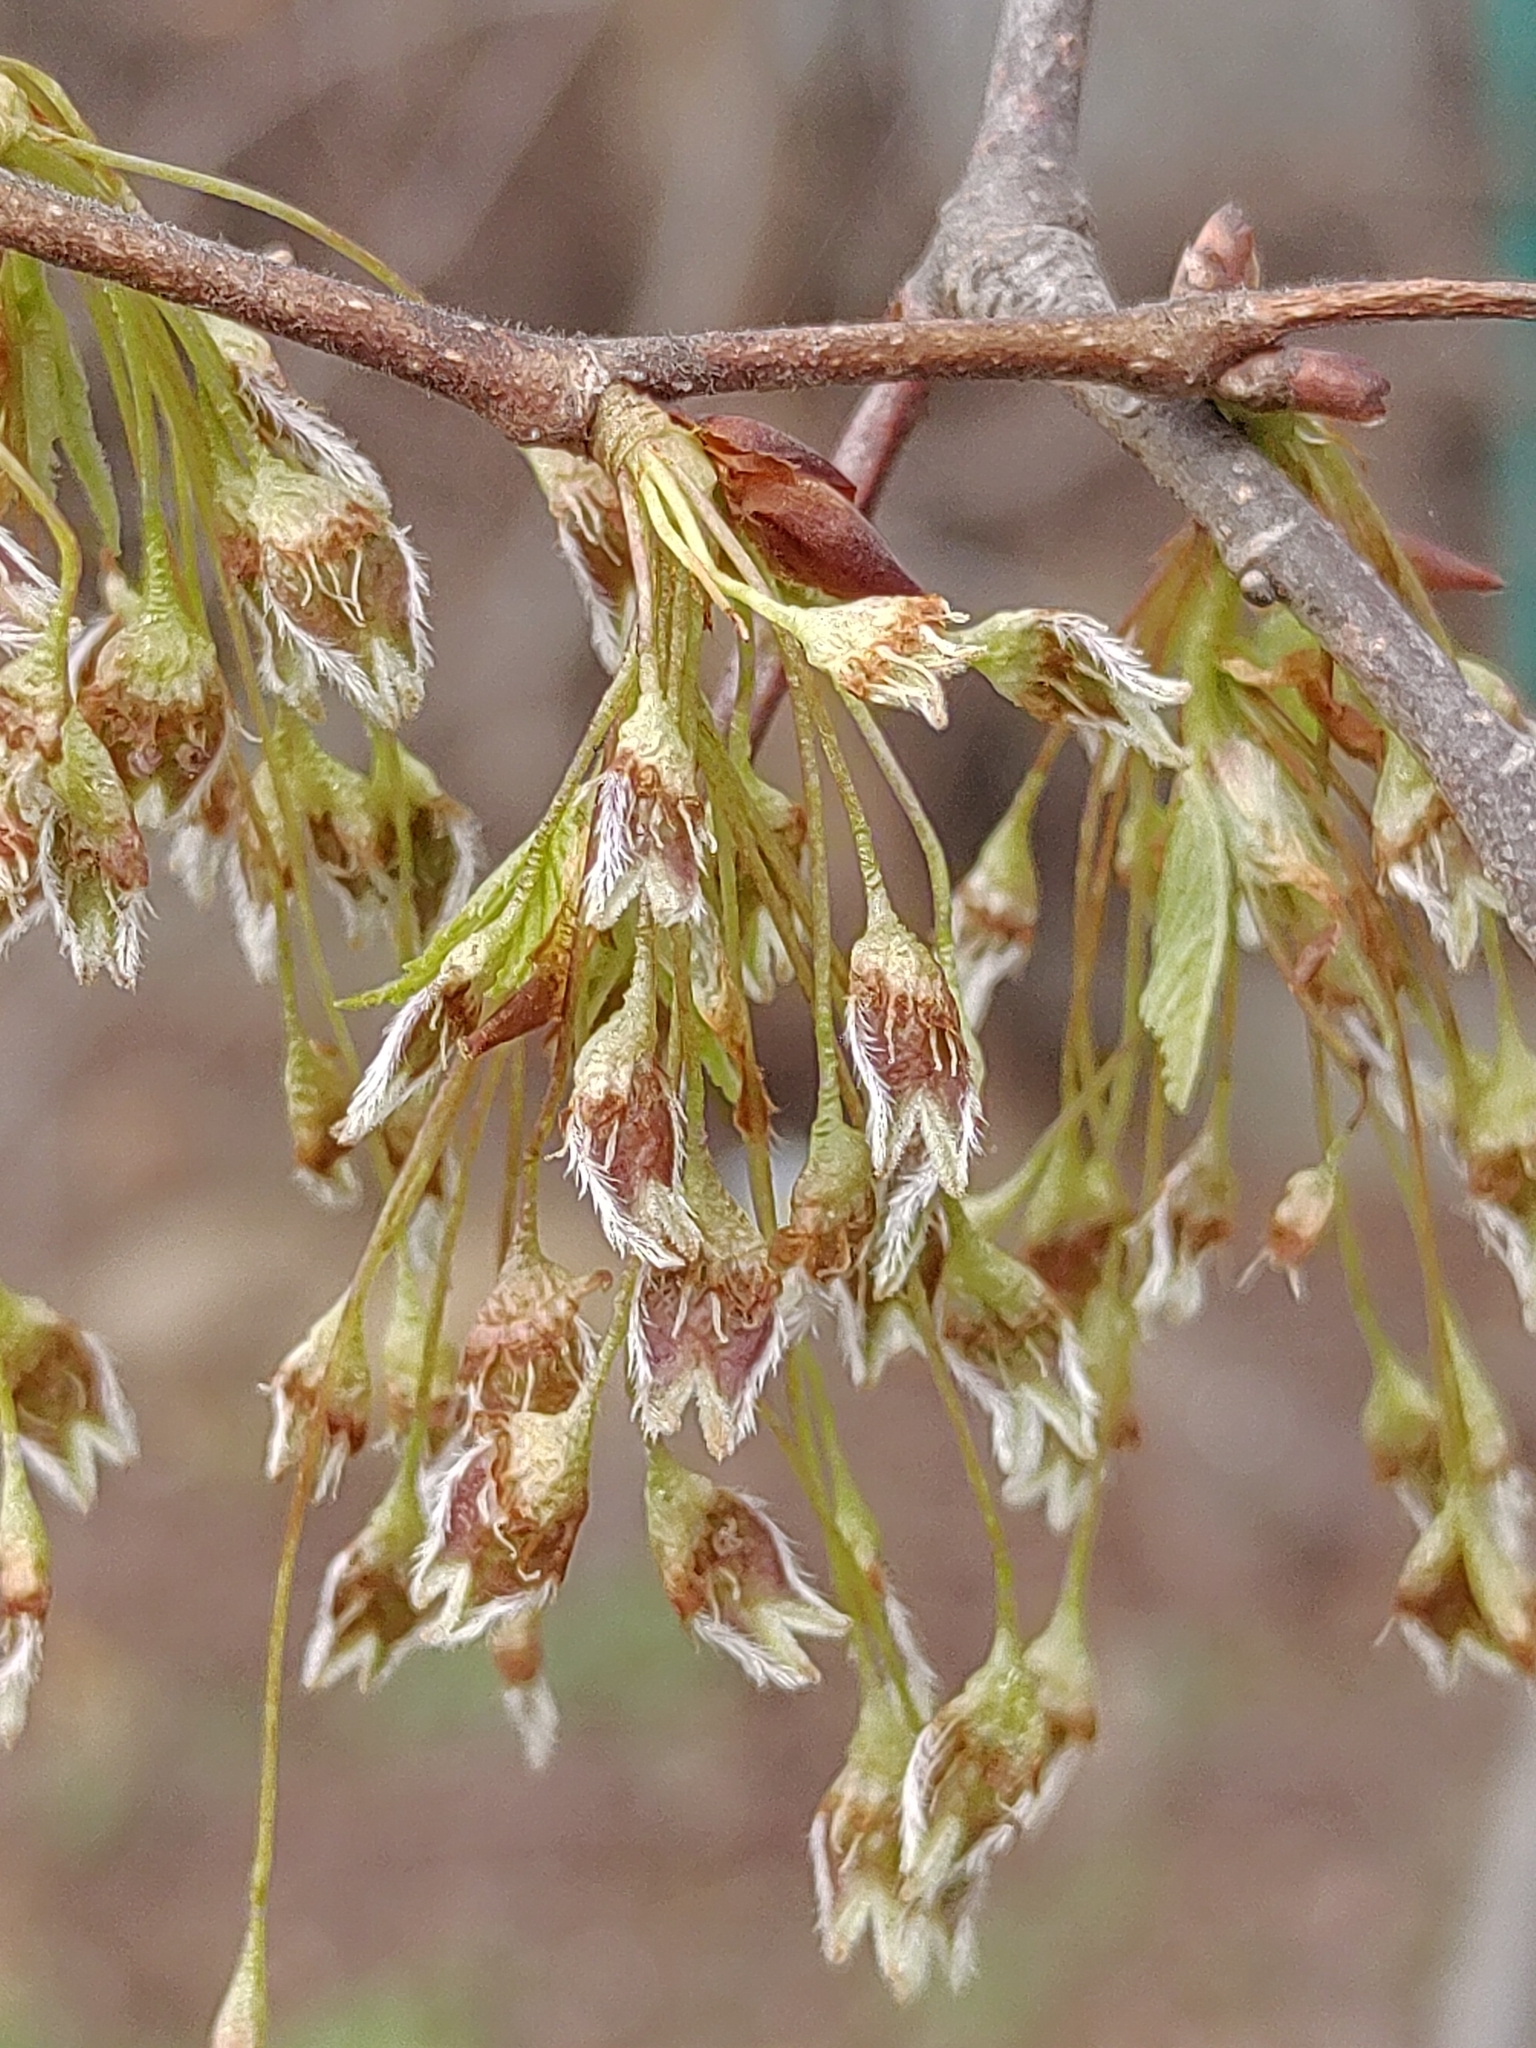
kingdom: Plantae
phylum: Tracheophyta
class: Magnoliopsida
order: Rosales
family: Ulmaceae
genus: Ulmus
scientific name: Ulmus laevis
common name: European white-elm
